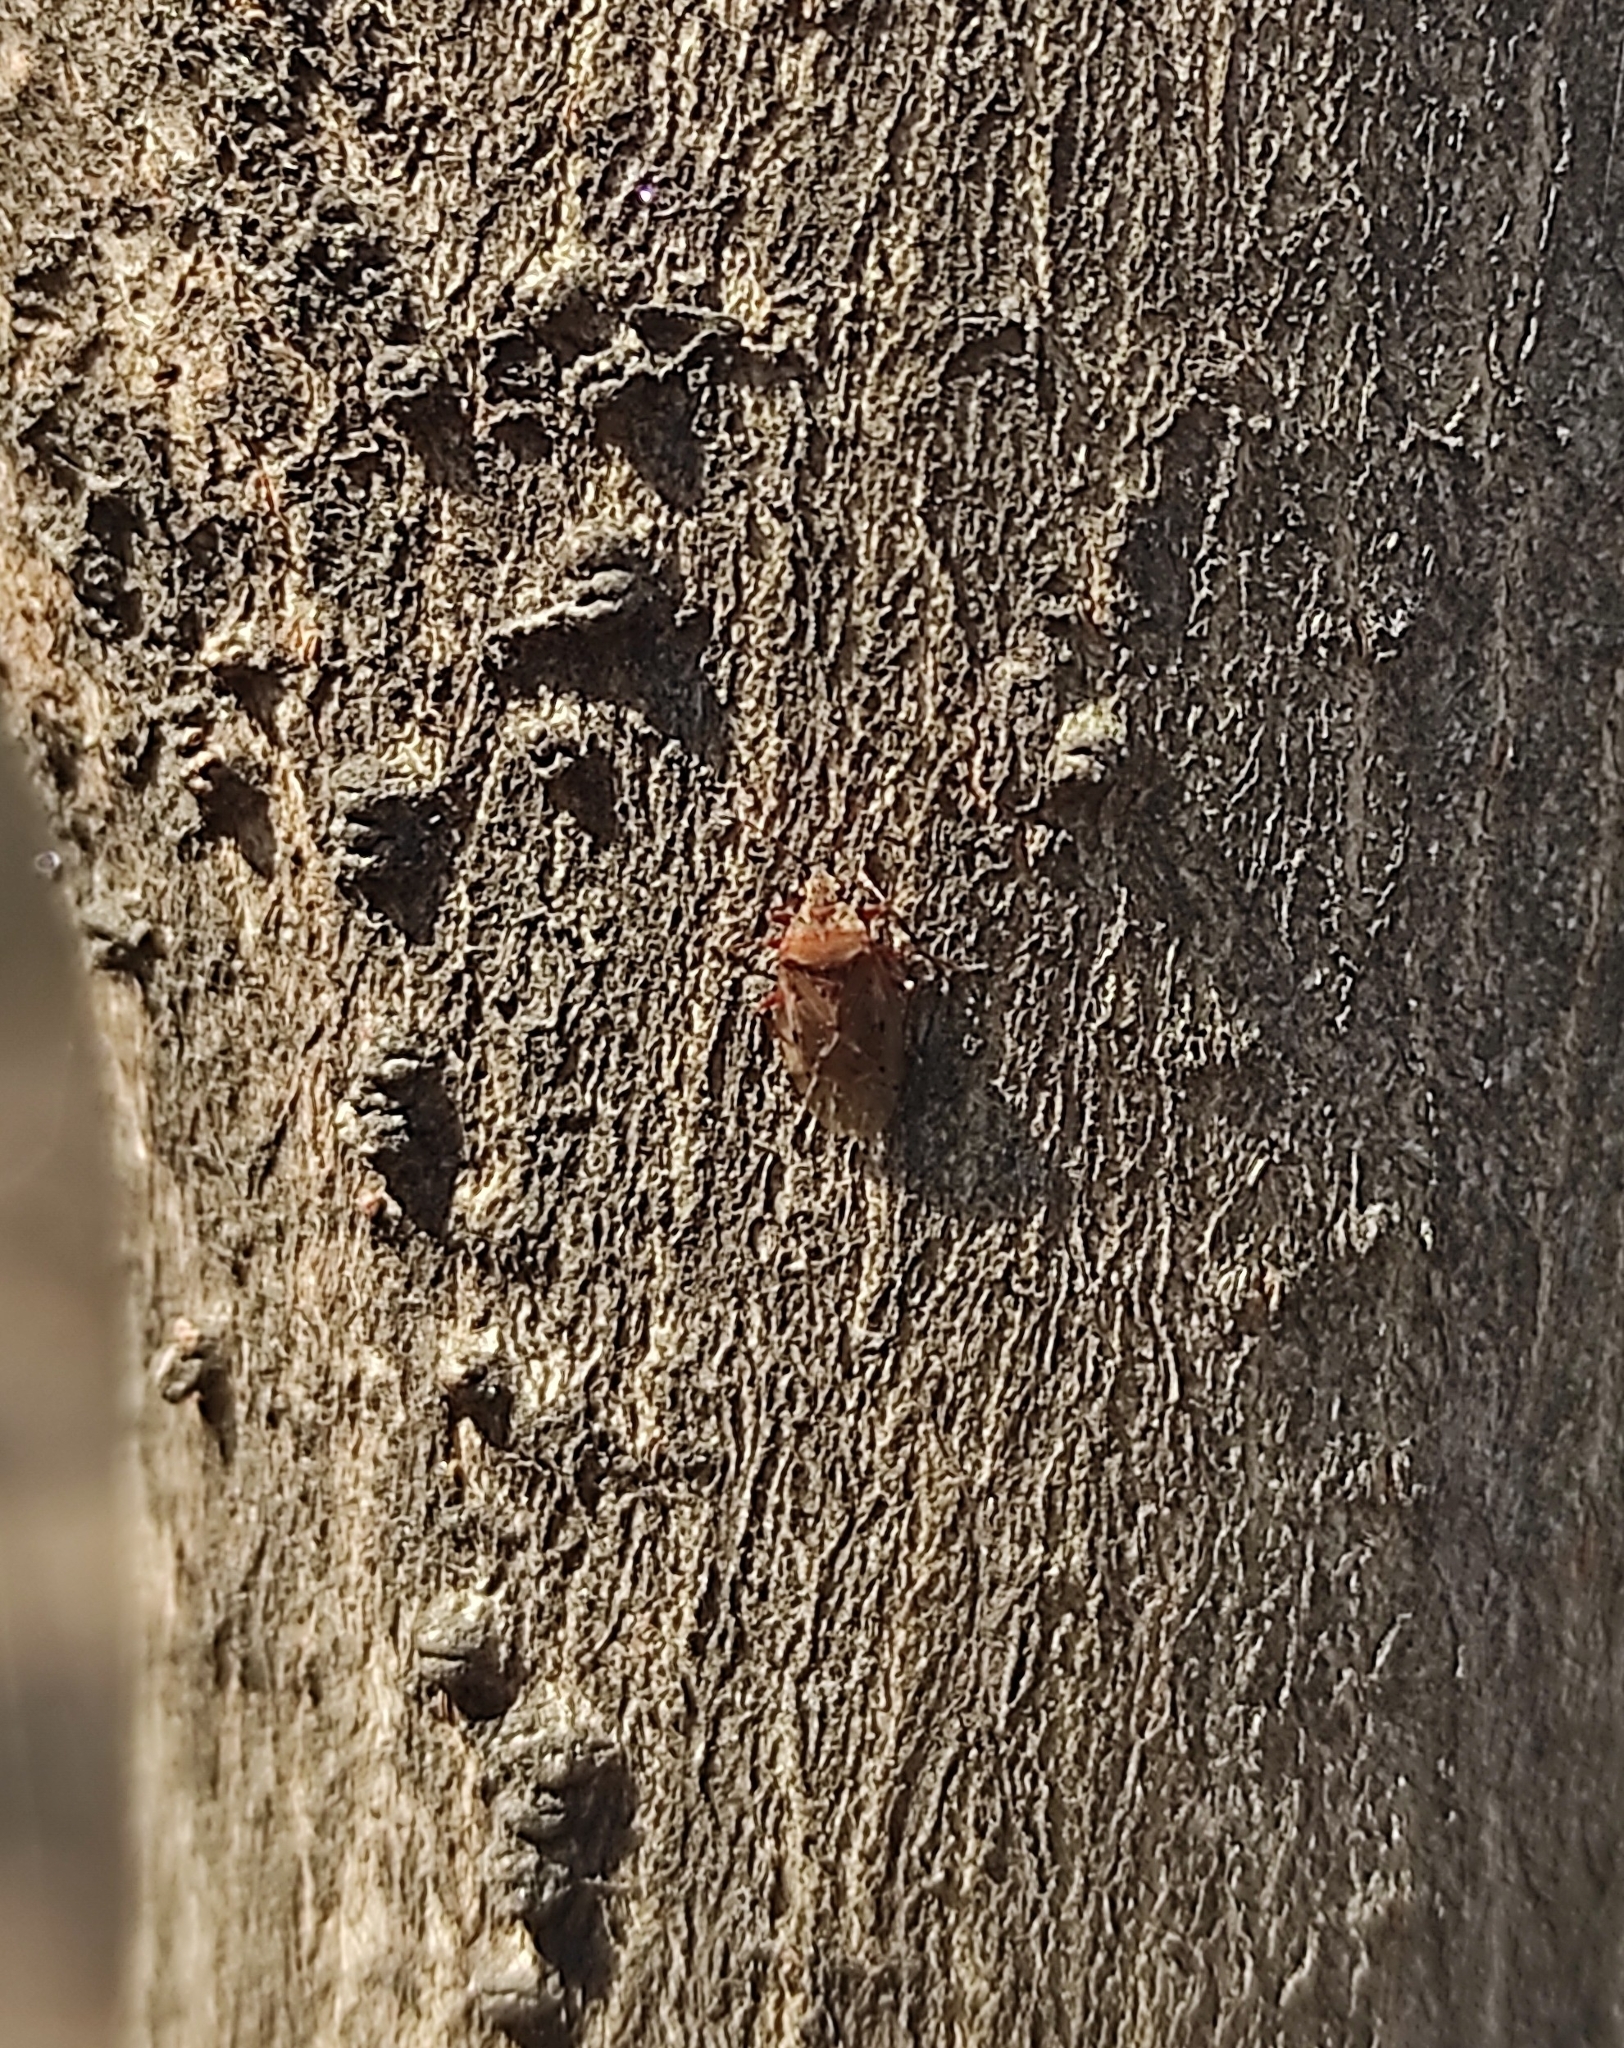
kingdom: Animalia
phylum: Arthropoda
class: Insecta
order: Hemiptera
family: Lygaeidae
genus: Kleidocerys
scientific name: Kleidocerys resedae
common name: Birch catkin bug
